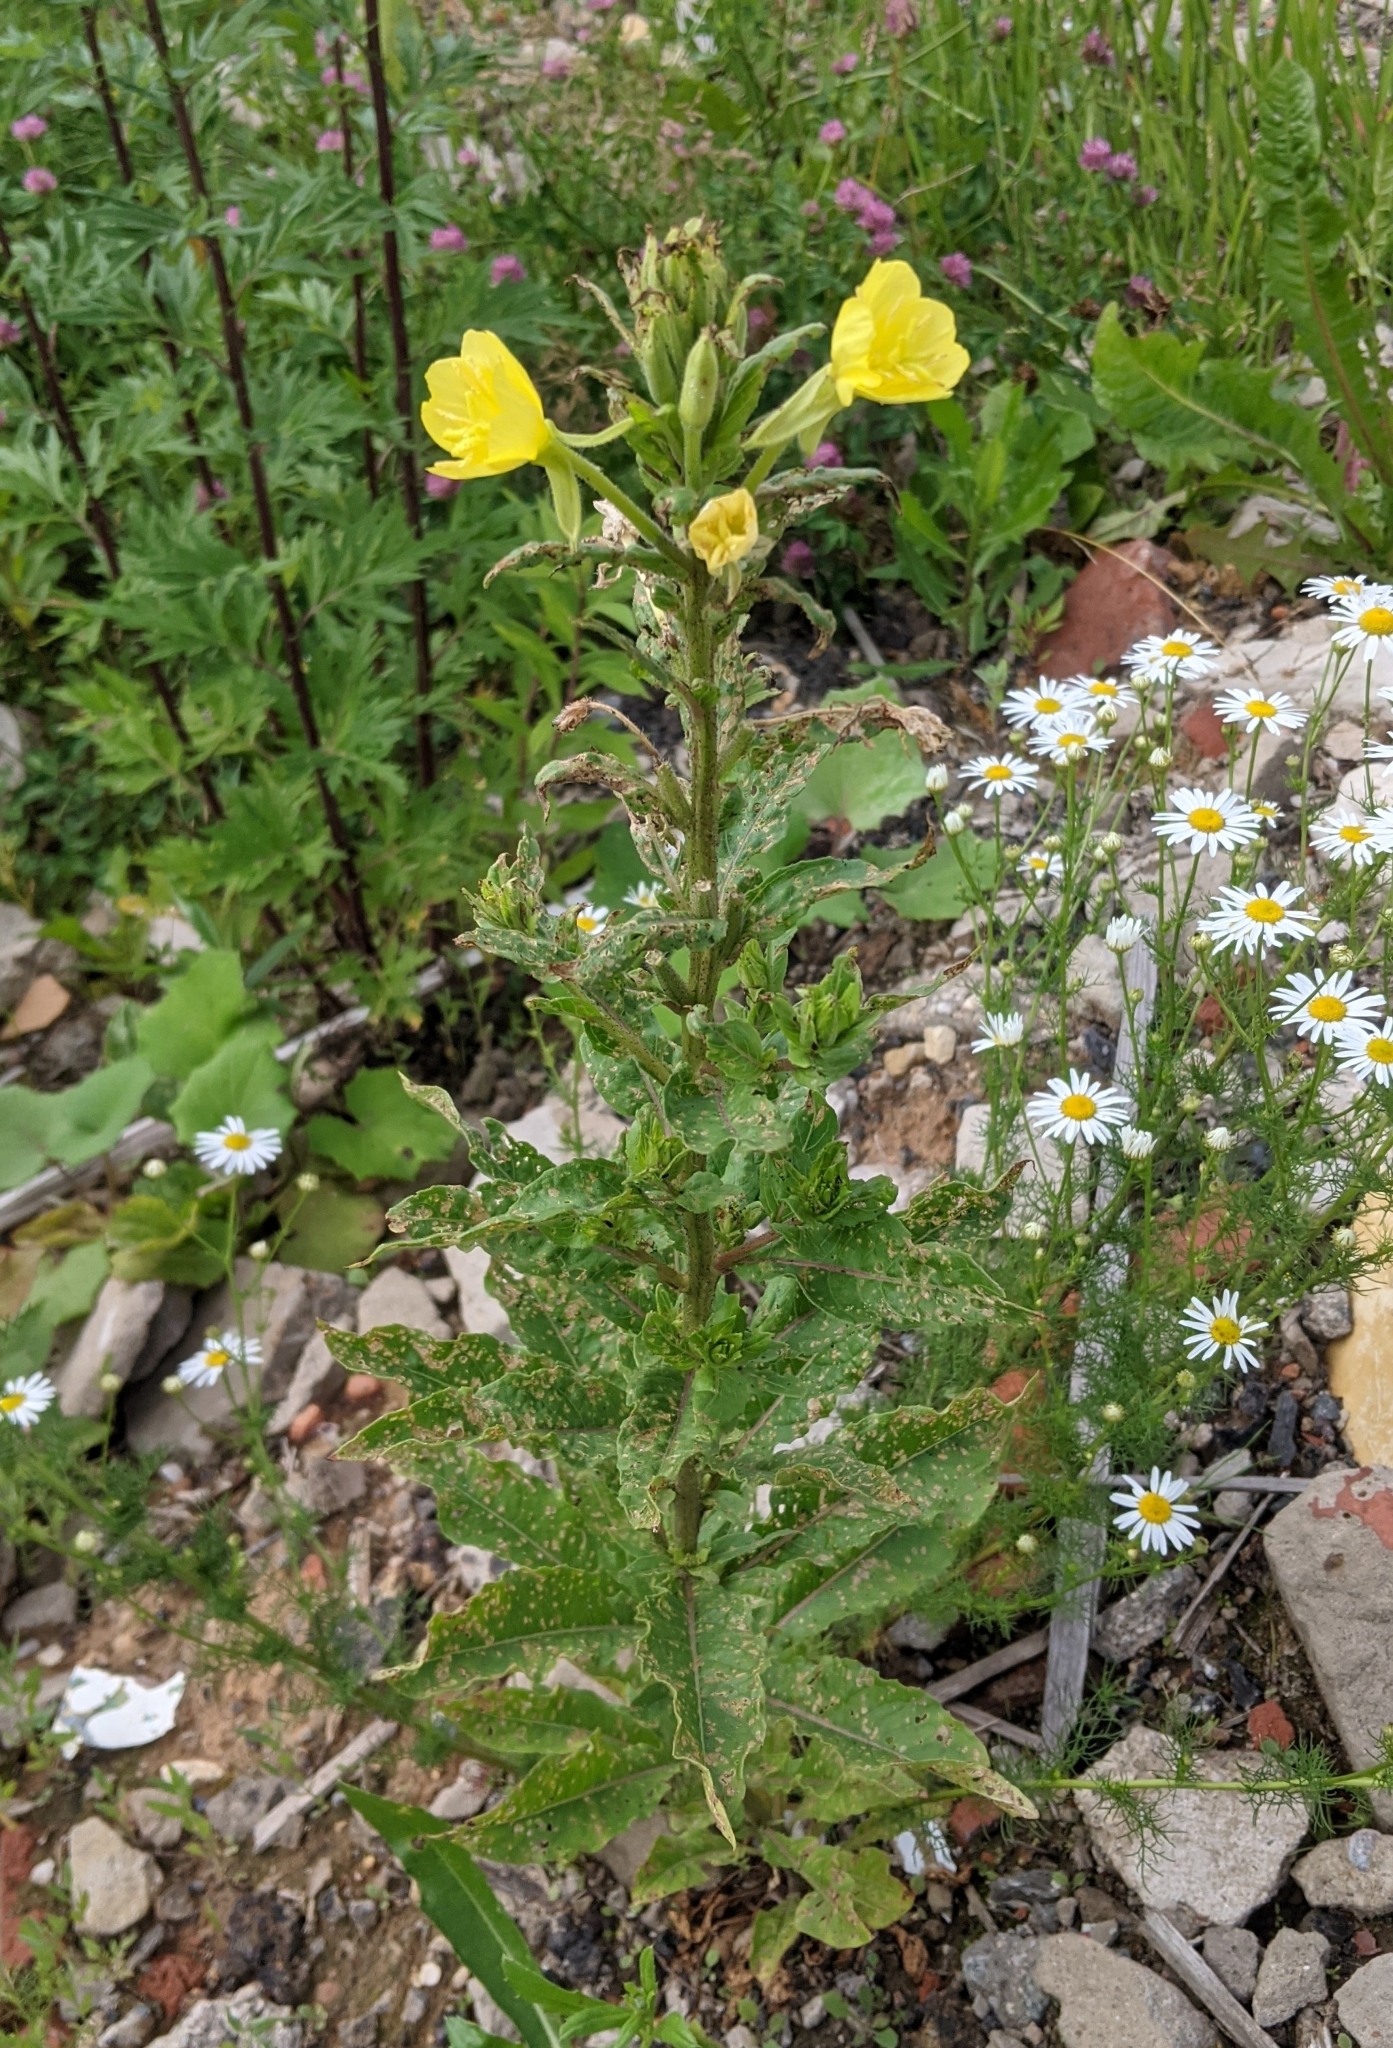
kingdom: Plantae
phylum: Tracheophyta
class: Magnoliopsida
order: Myrtales
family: Onagraceae
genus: Oenothera
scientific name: Oenothera biennis
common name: Common evening-primrose
